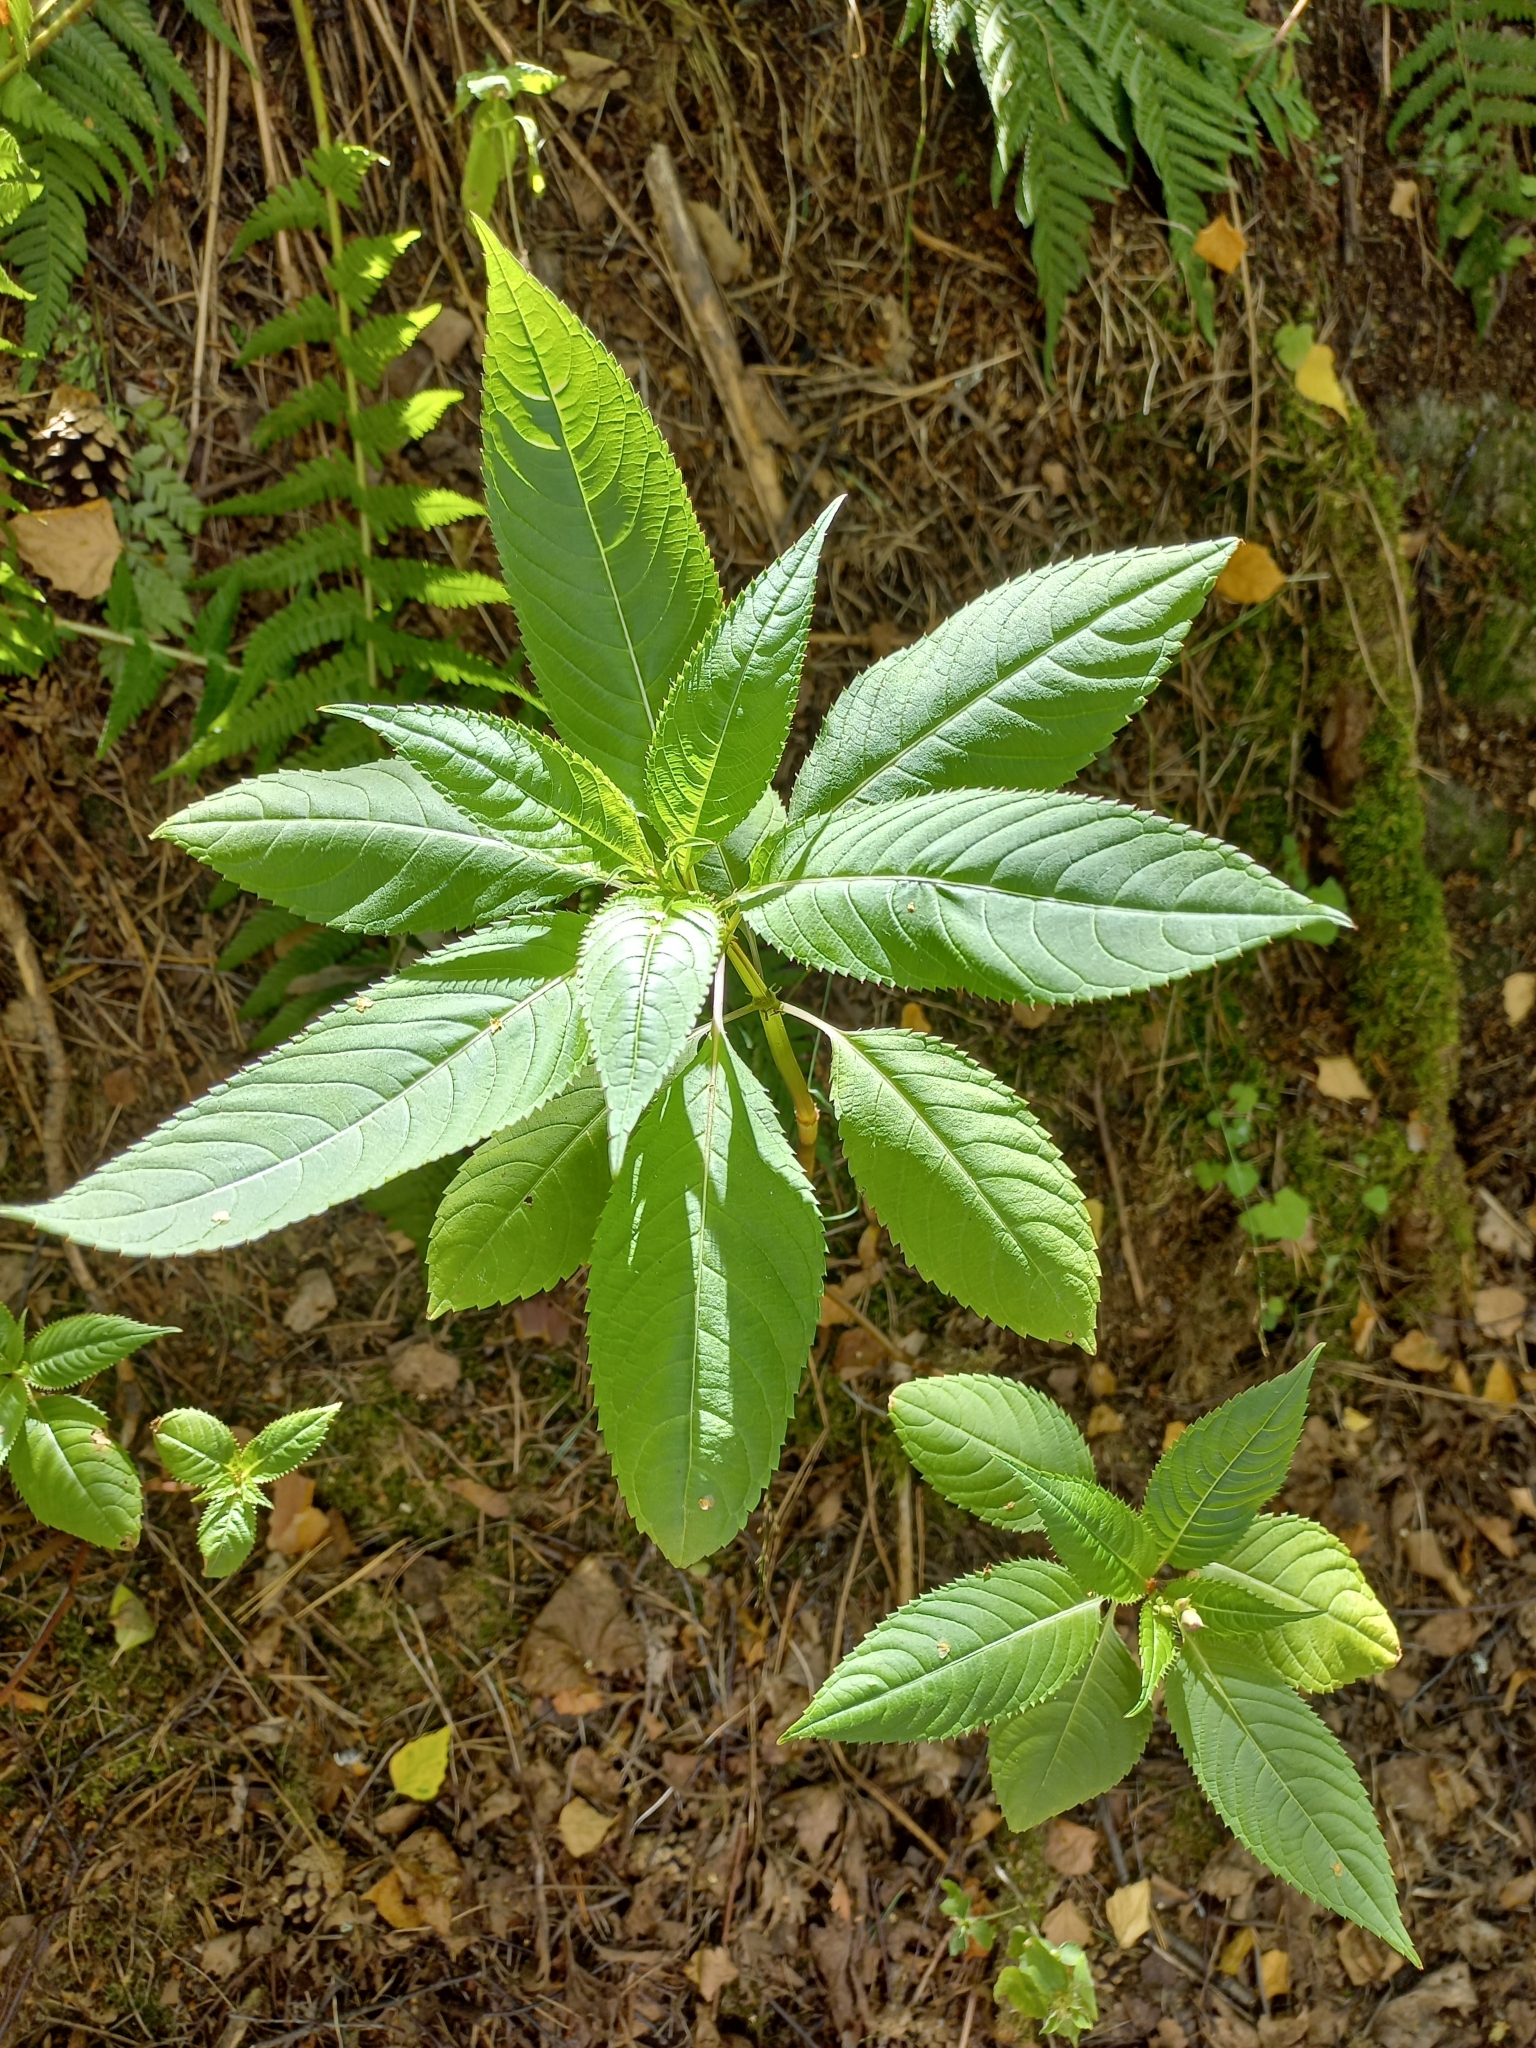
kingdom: Plantae
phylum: Tracheophyta
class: Magnoliopsida
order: Ericales
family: Balsaminaceae
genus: Impatiens
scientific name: Impatiens glandulifera
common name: Himalayan balsam
